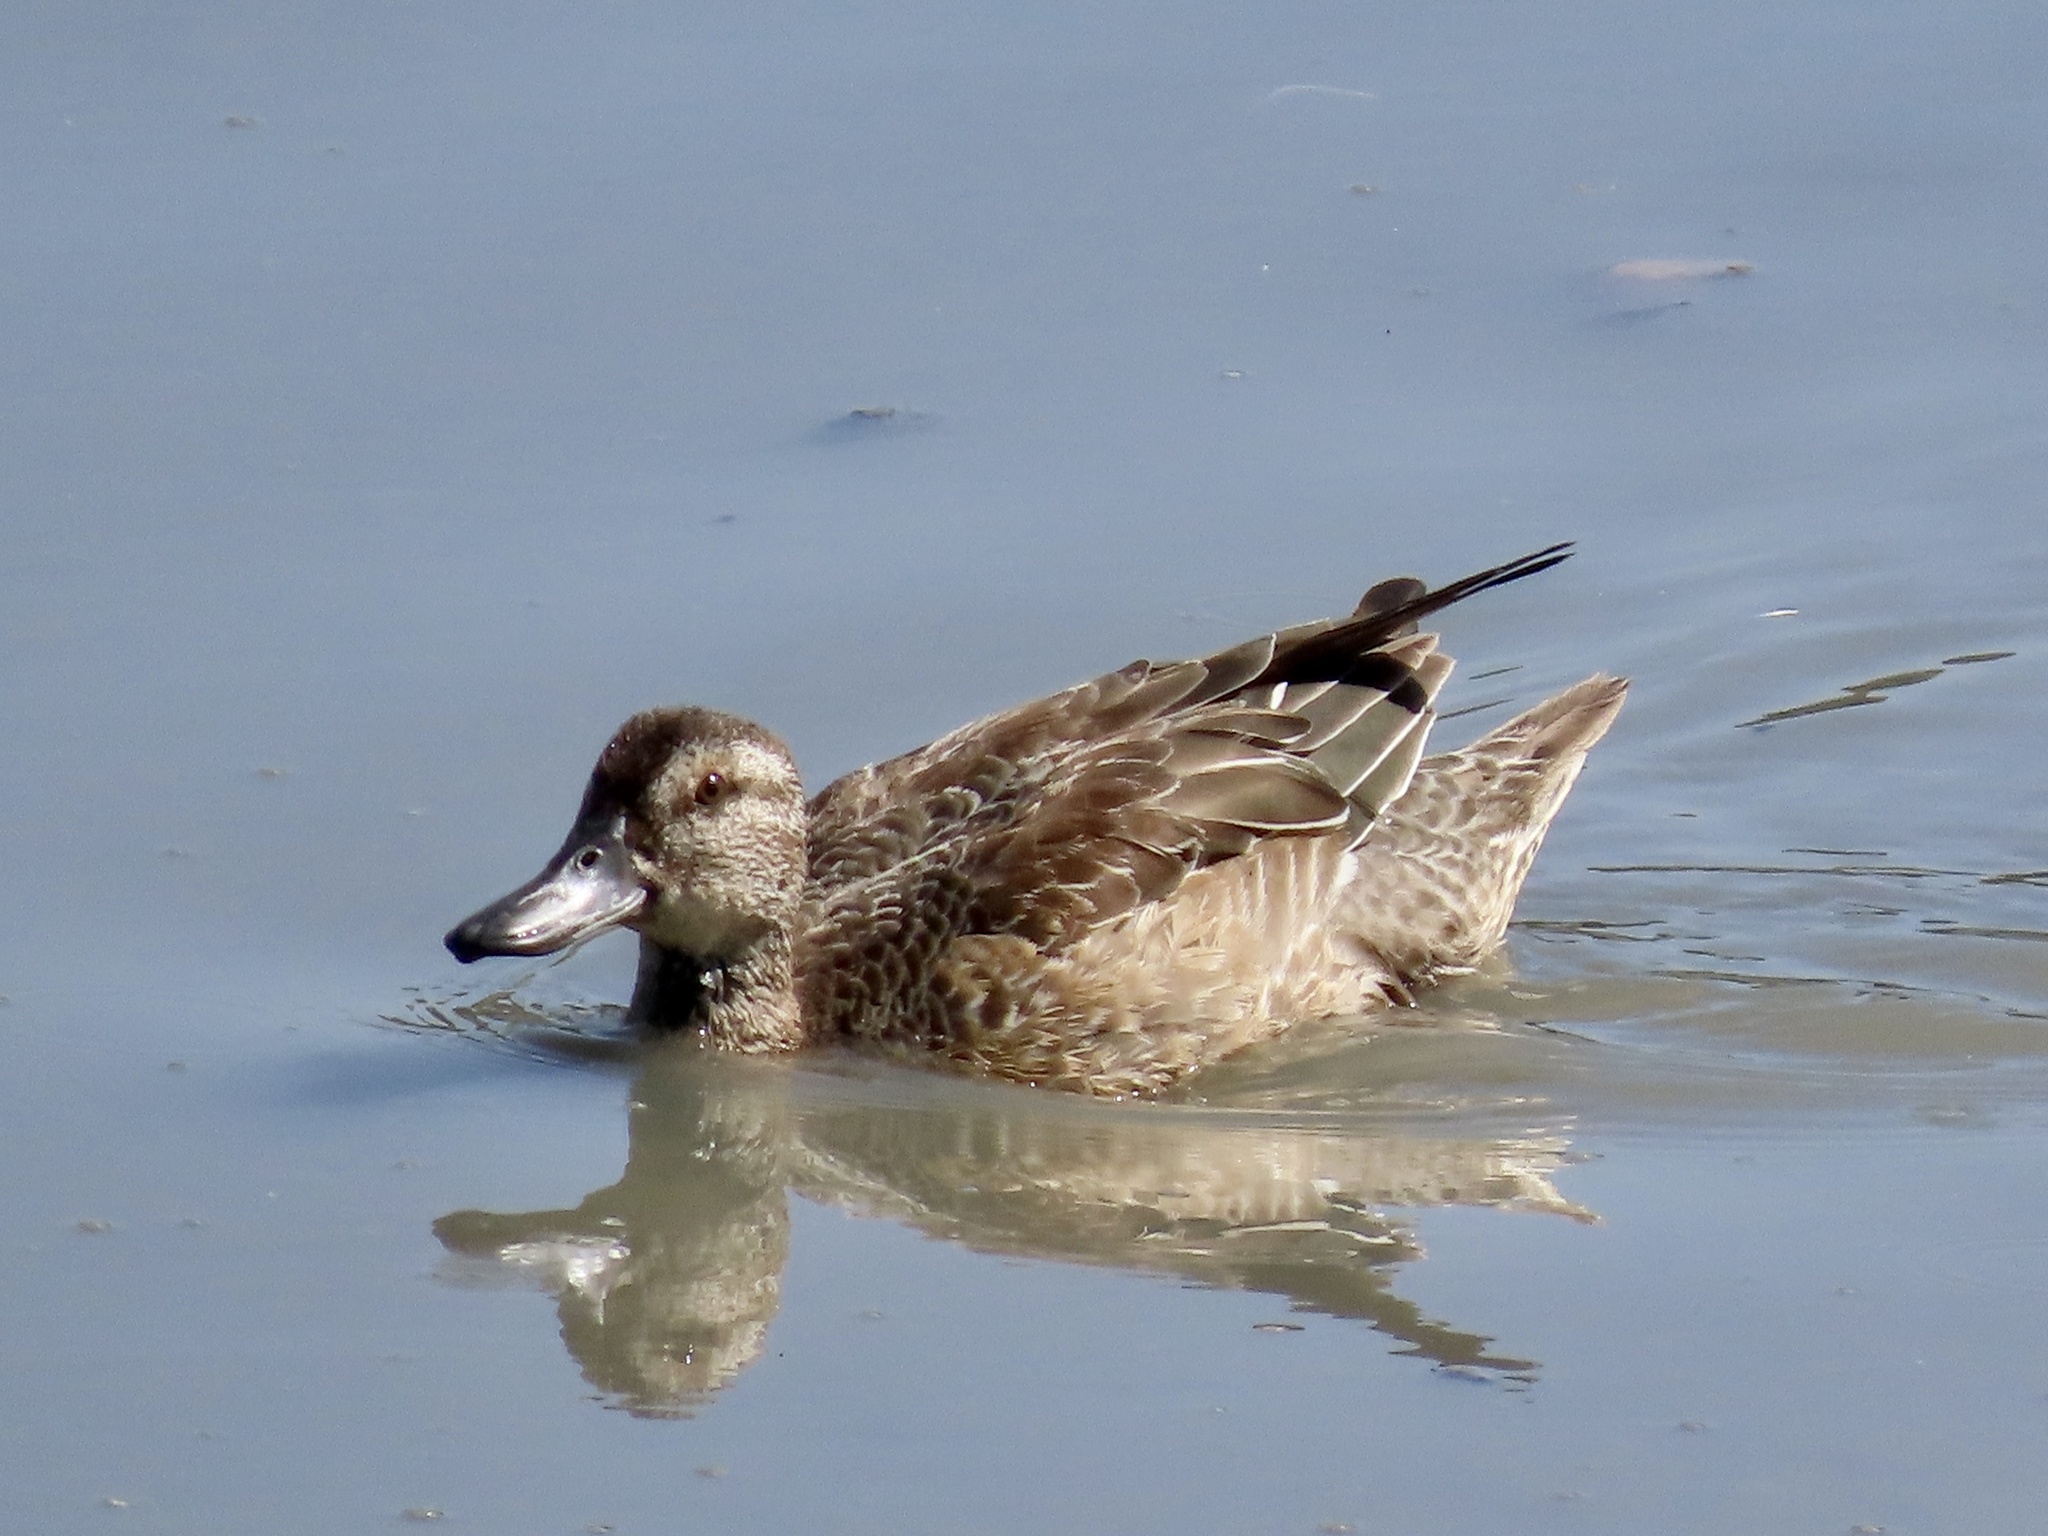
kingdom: Animalia
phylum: Chordata
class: Aves
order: Anseriformes
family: Anatidae
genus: Anas
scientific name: Anas crecca
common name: Eurasian teal
